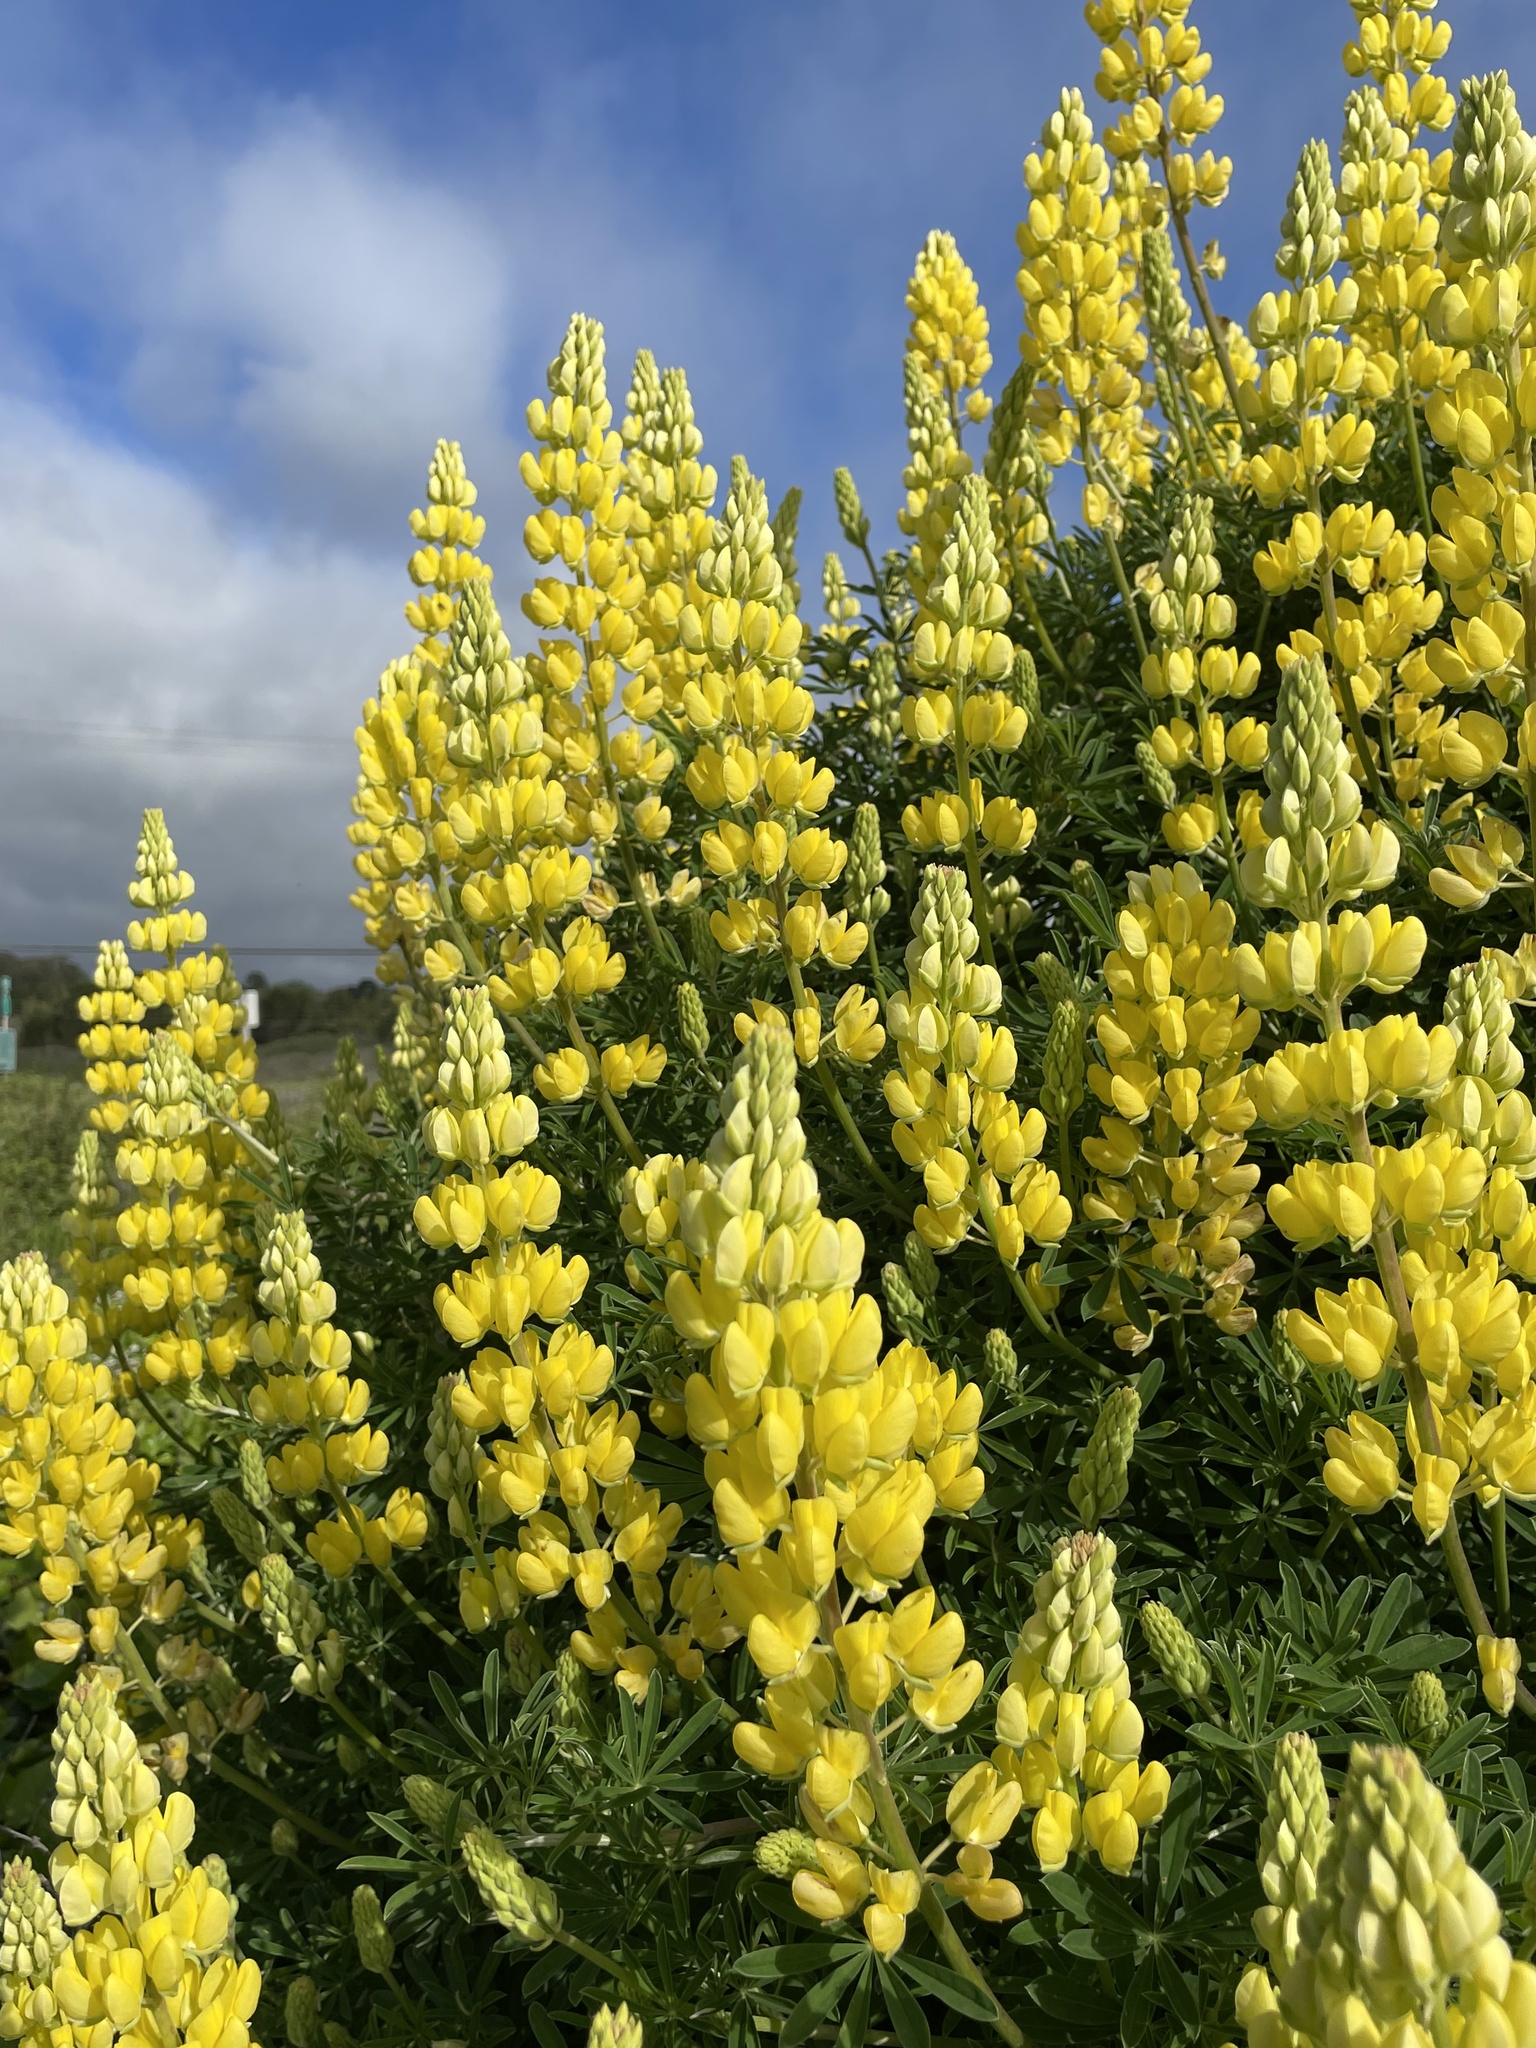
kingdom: Plantae
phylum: Tracheophyta
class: Magnoliopsida
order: Fabales
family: Fabaceae
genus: Lupinus
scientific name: Lupinus arboreus
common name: Yellow bush lupine
